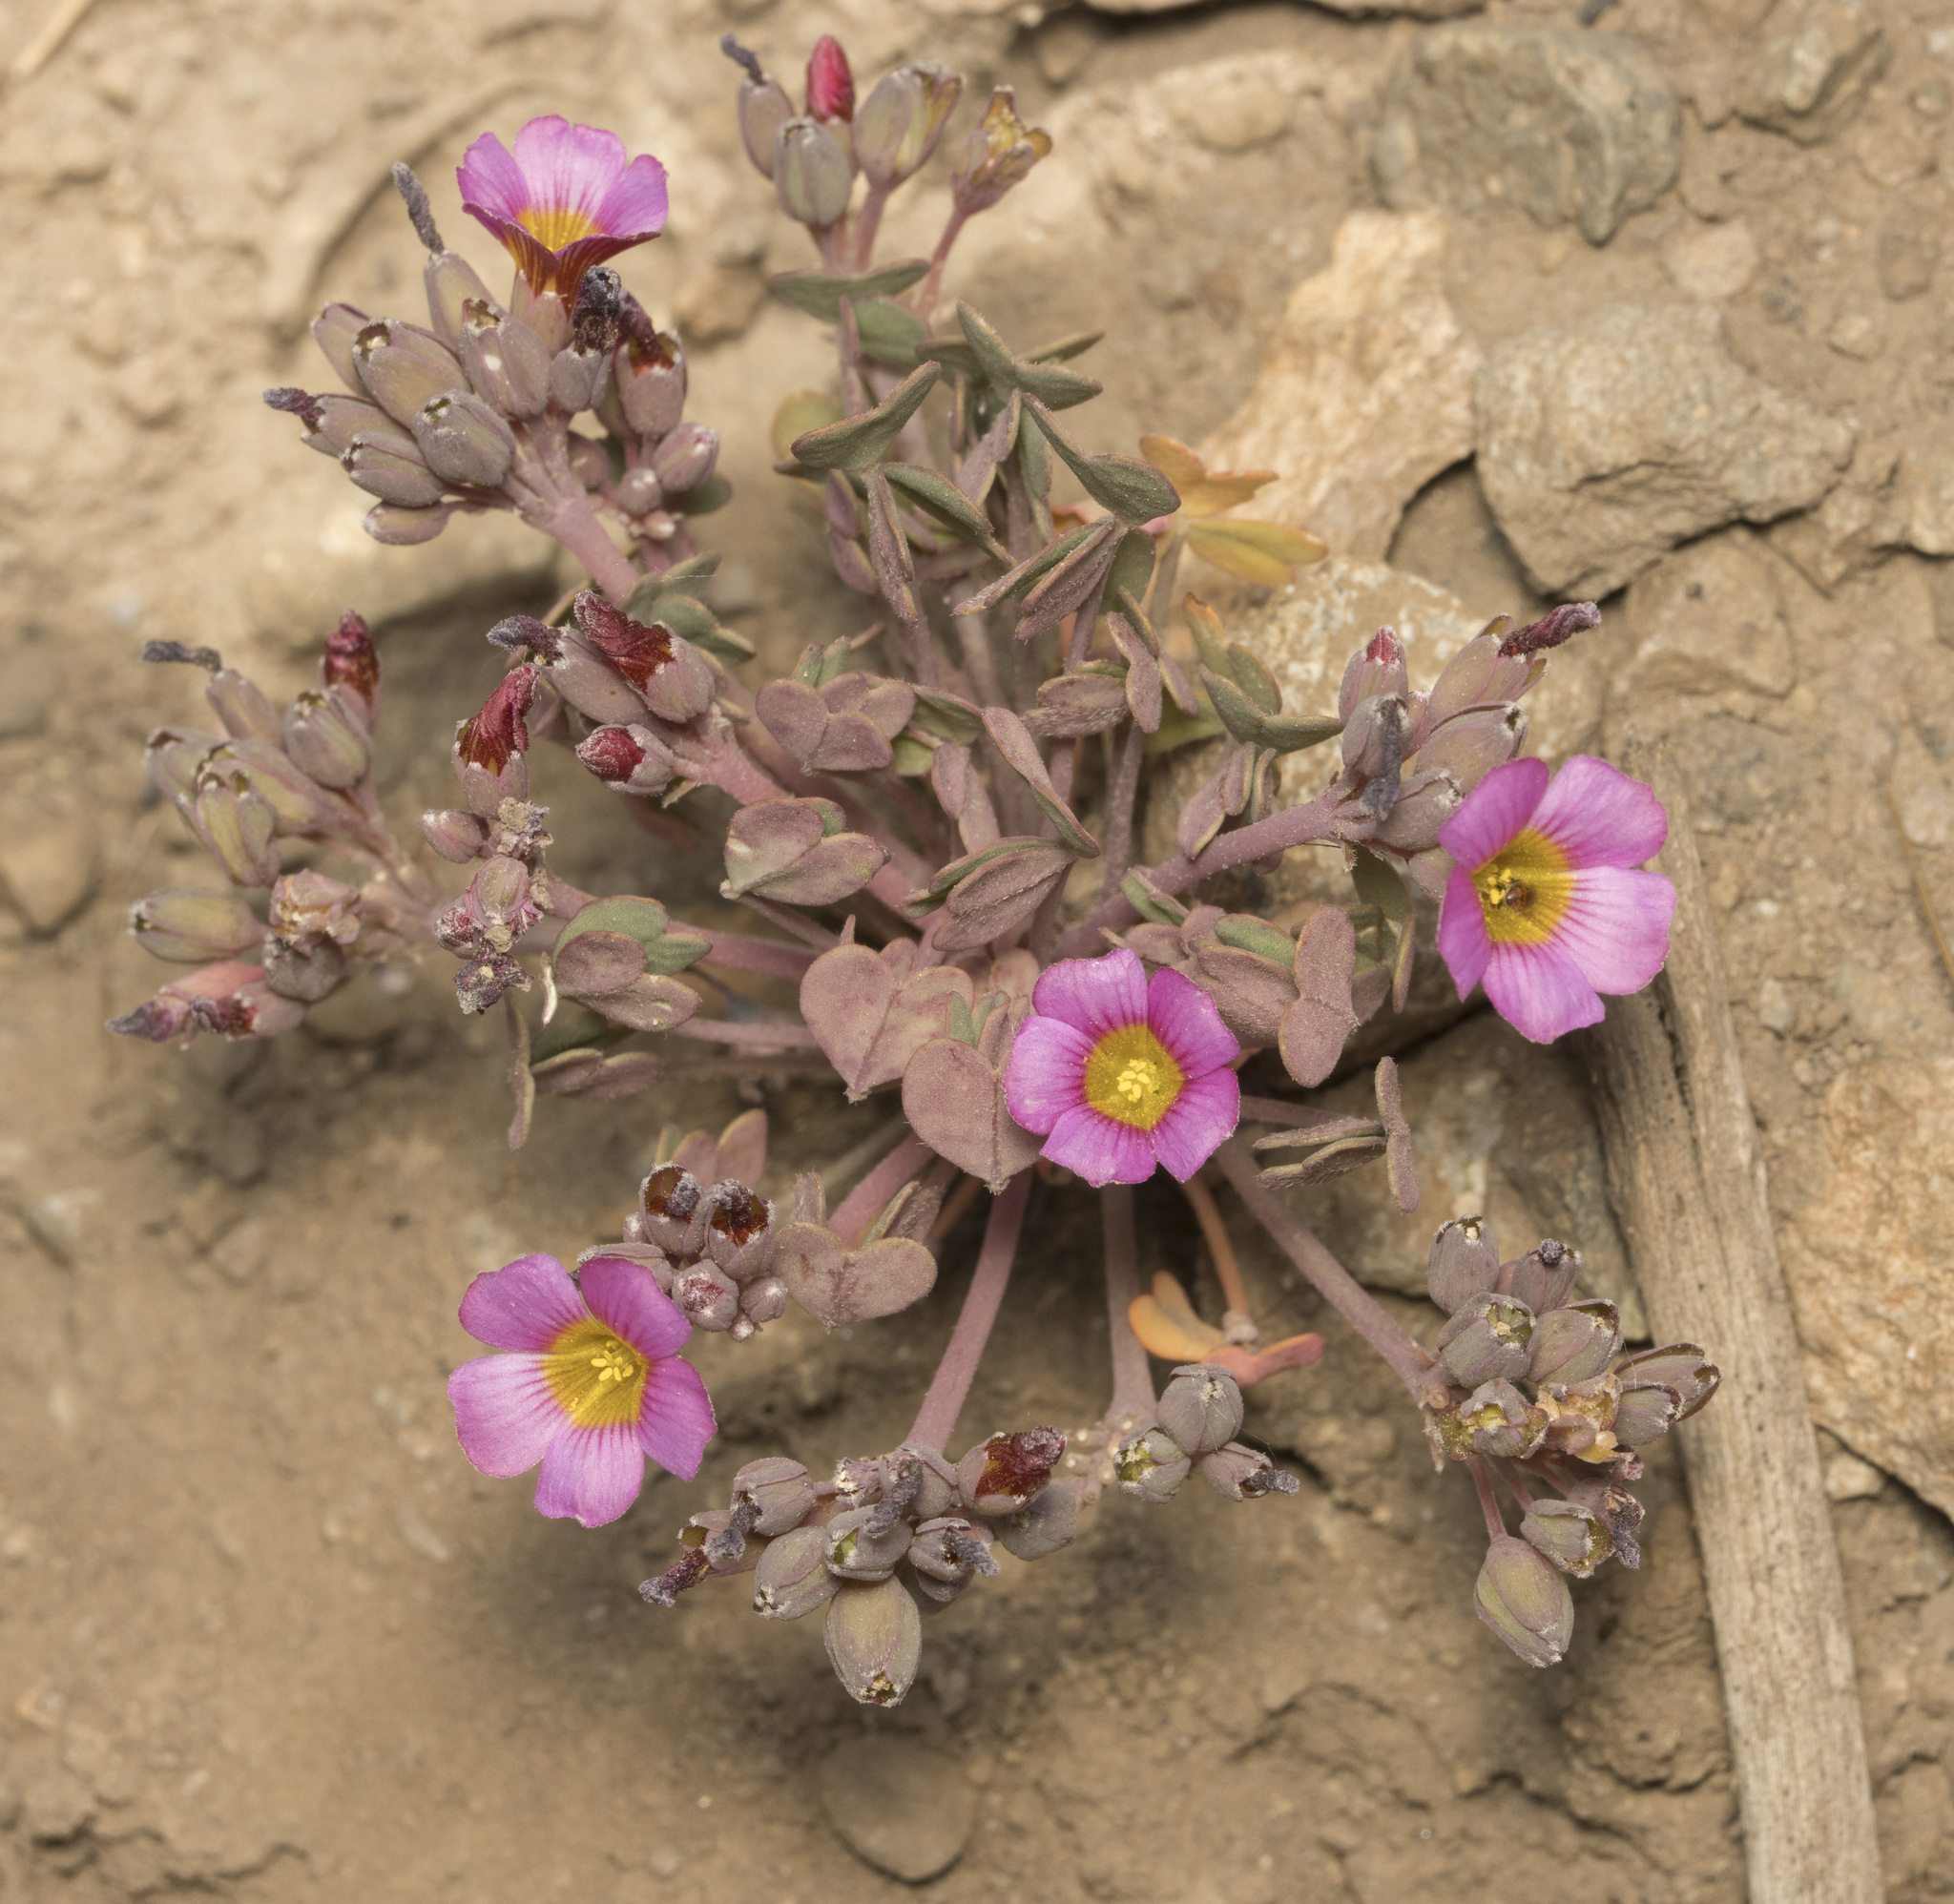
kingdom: Plantae
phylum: Tracheophyta
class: Magnoliopsida
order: Oxalidales
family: Oxalidaceae
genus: Oxalis
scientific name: Oxalis squamata
